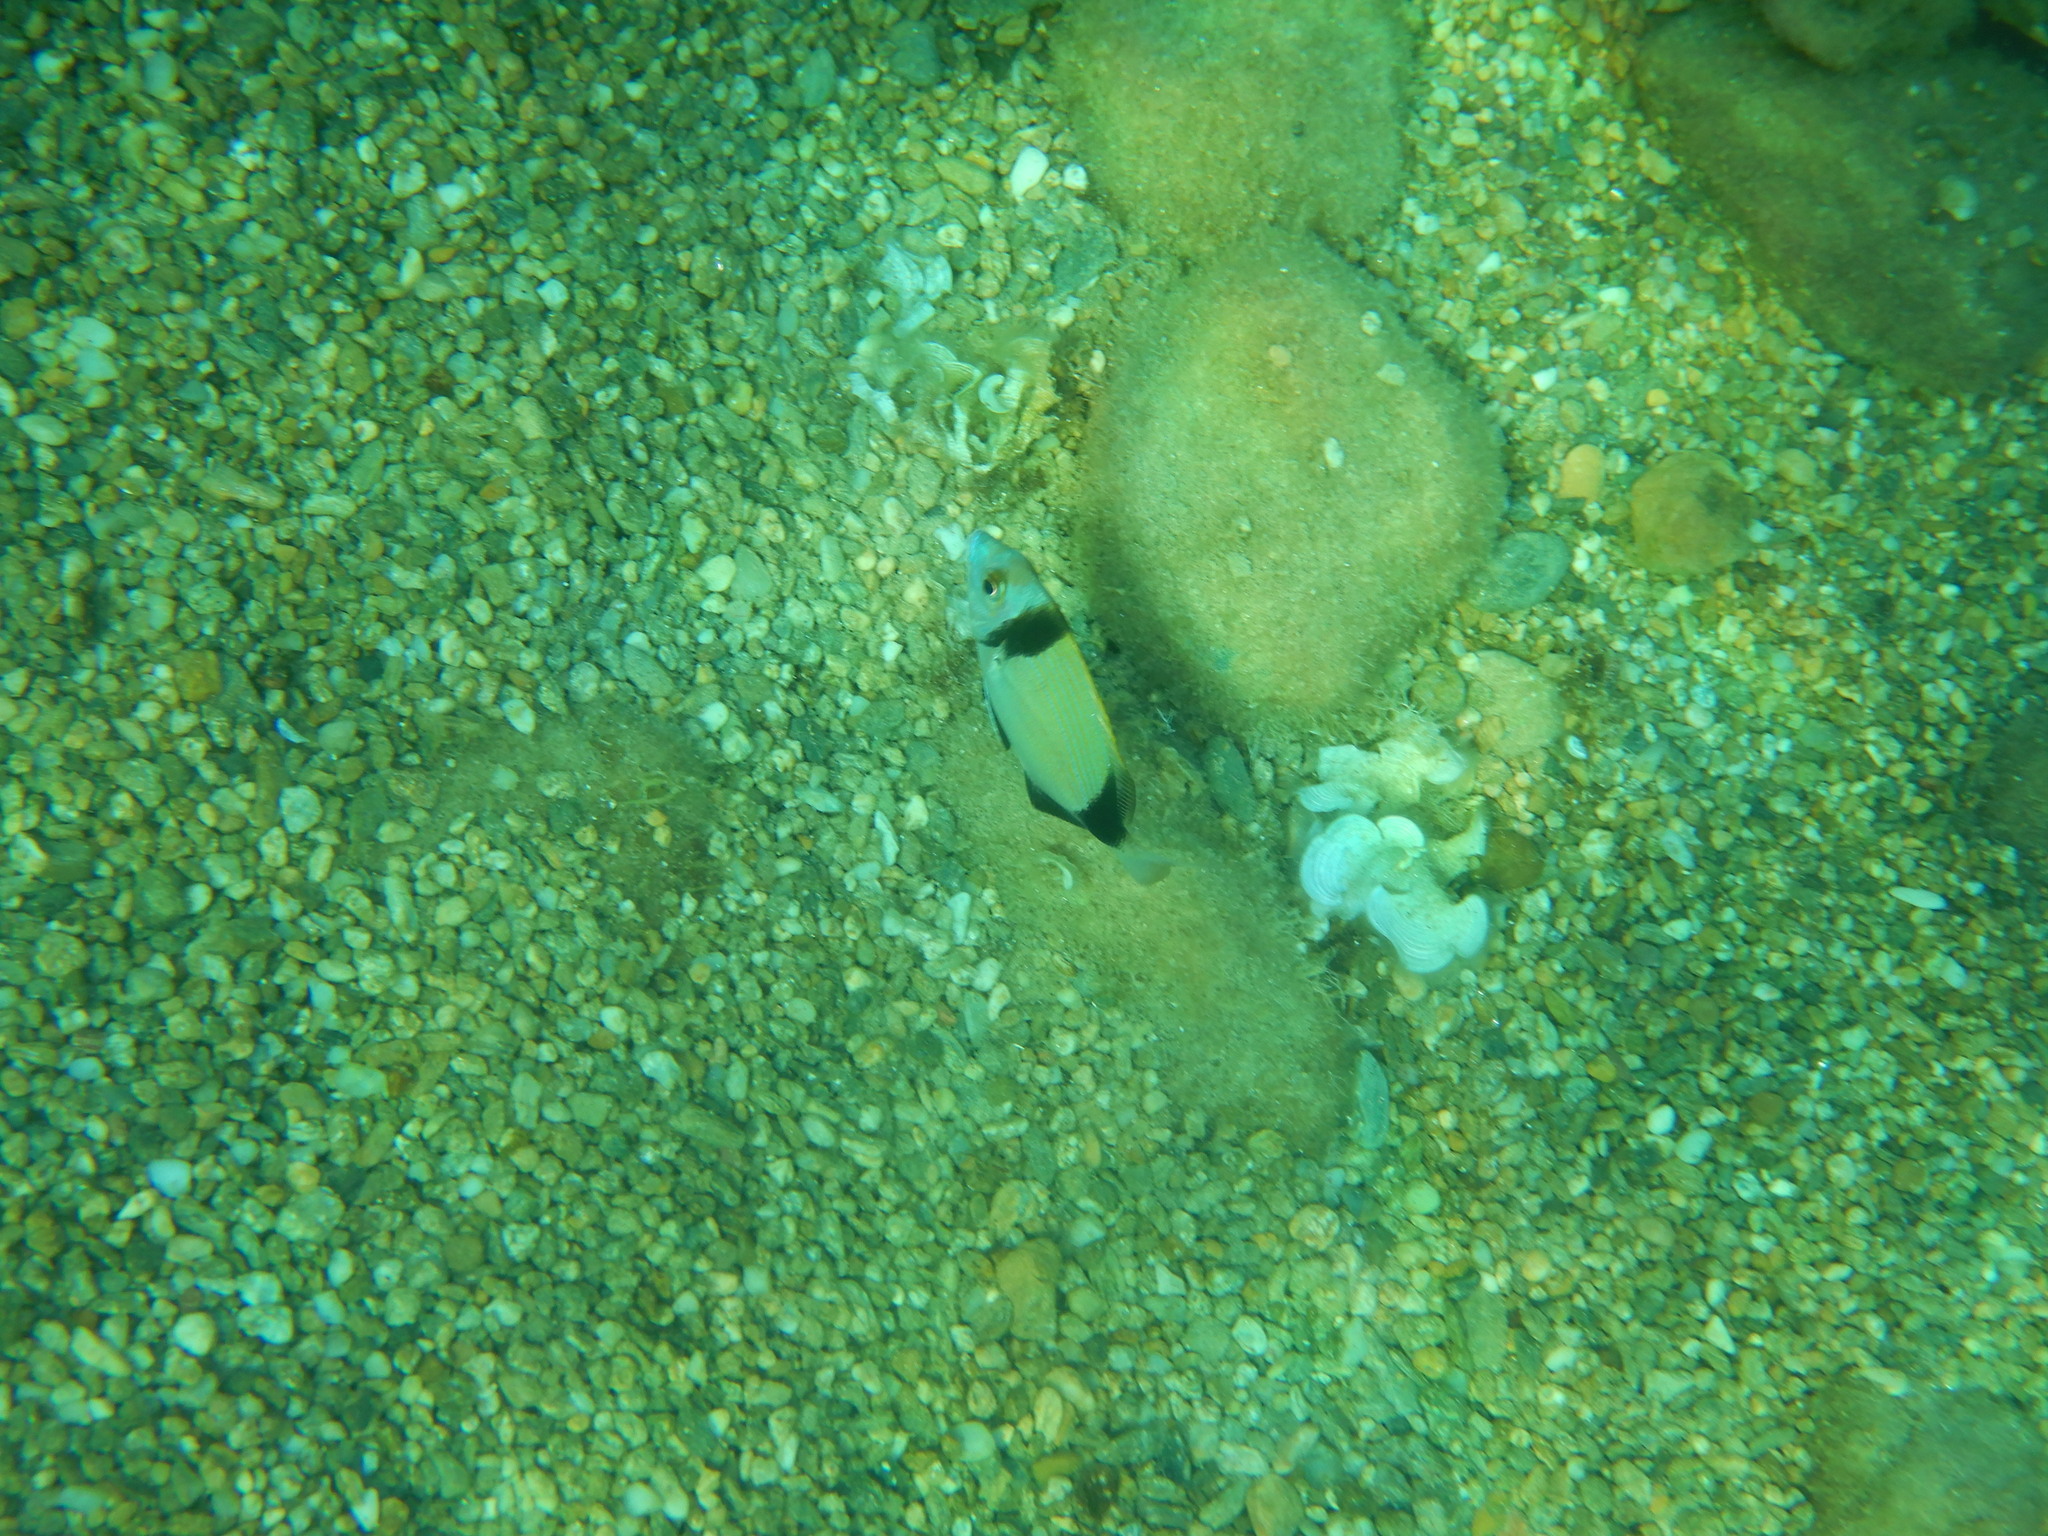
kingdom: Animalia
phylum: Chordata
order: Perciformes
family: Sparidae
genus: Diplodus
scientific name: Diplodus vulgaris
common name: Common two-banded seabream
